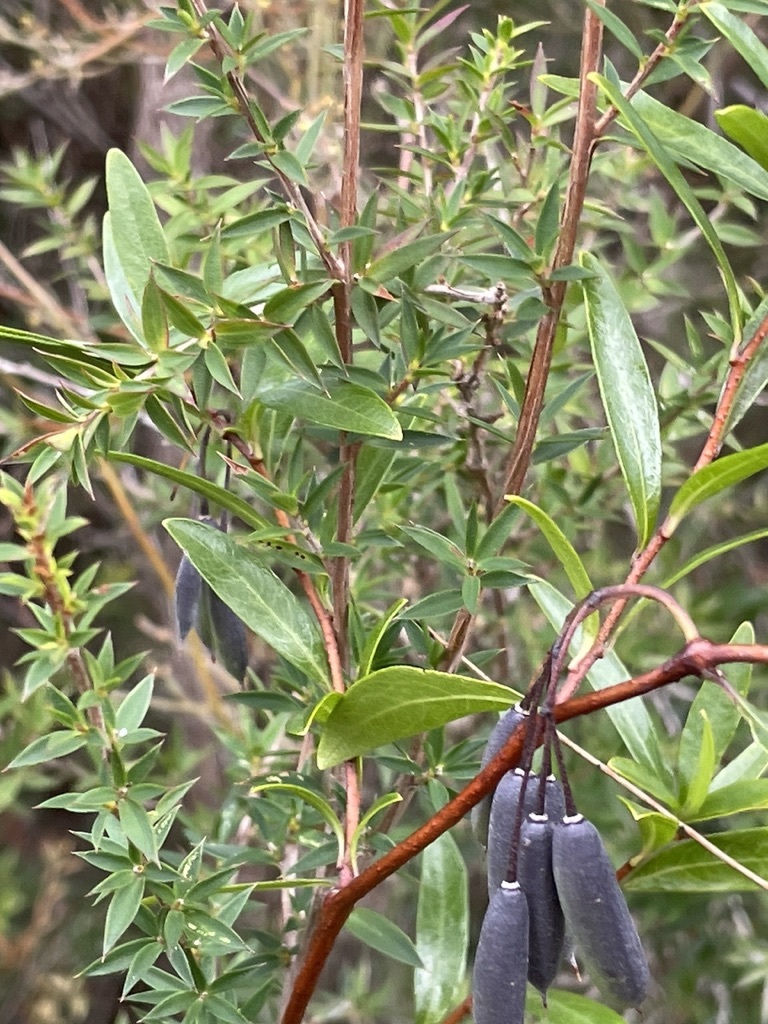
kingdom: Plantae
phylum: Tracheophyta
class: Magnoliopsida
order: Apiales
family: Pittosporaceae
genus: Billardiera
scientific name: Billardiera fusiformis
